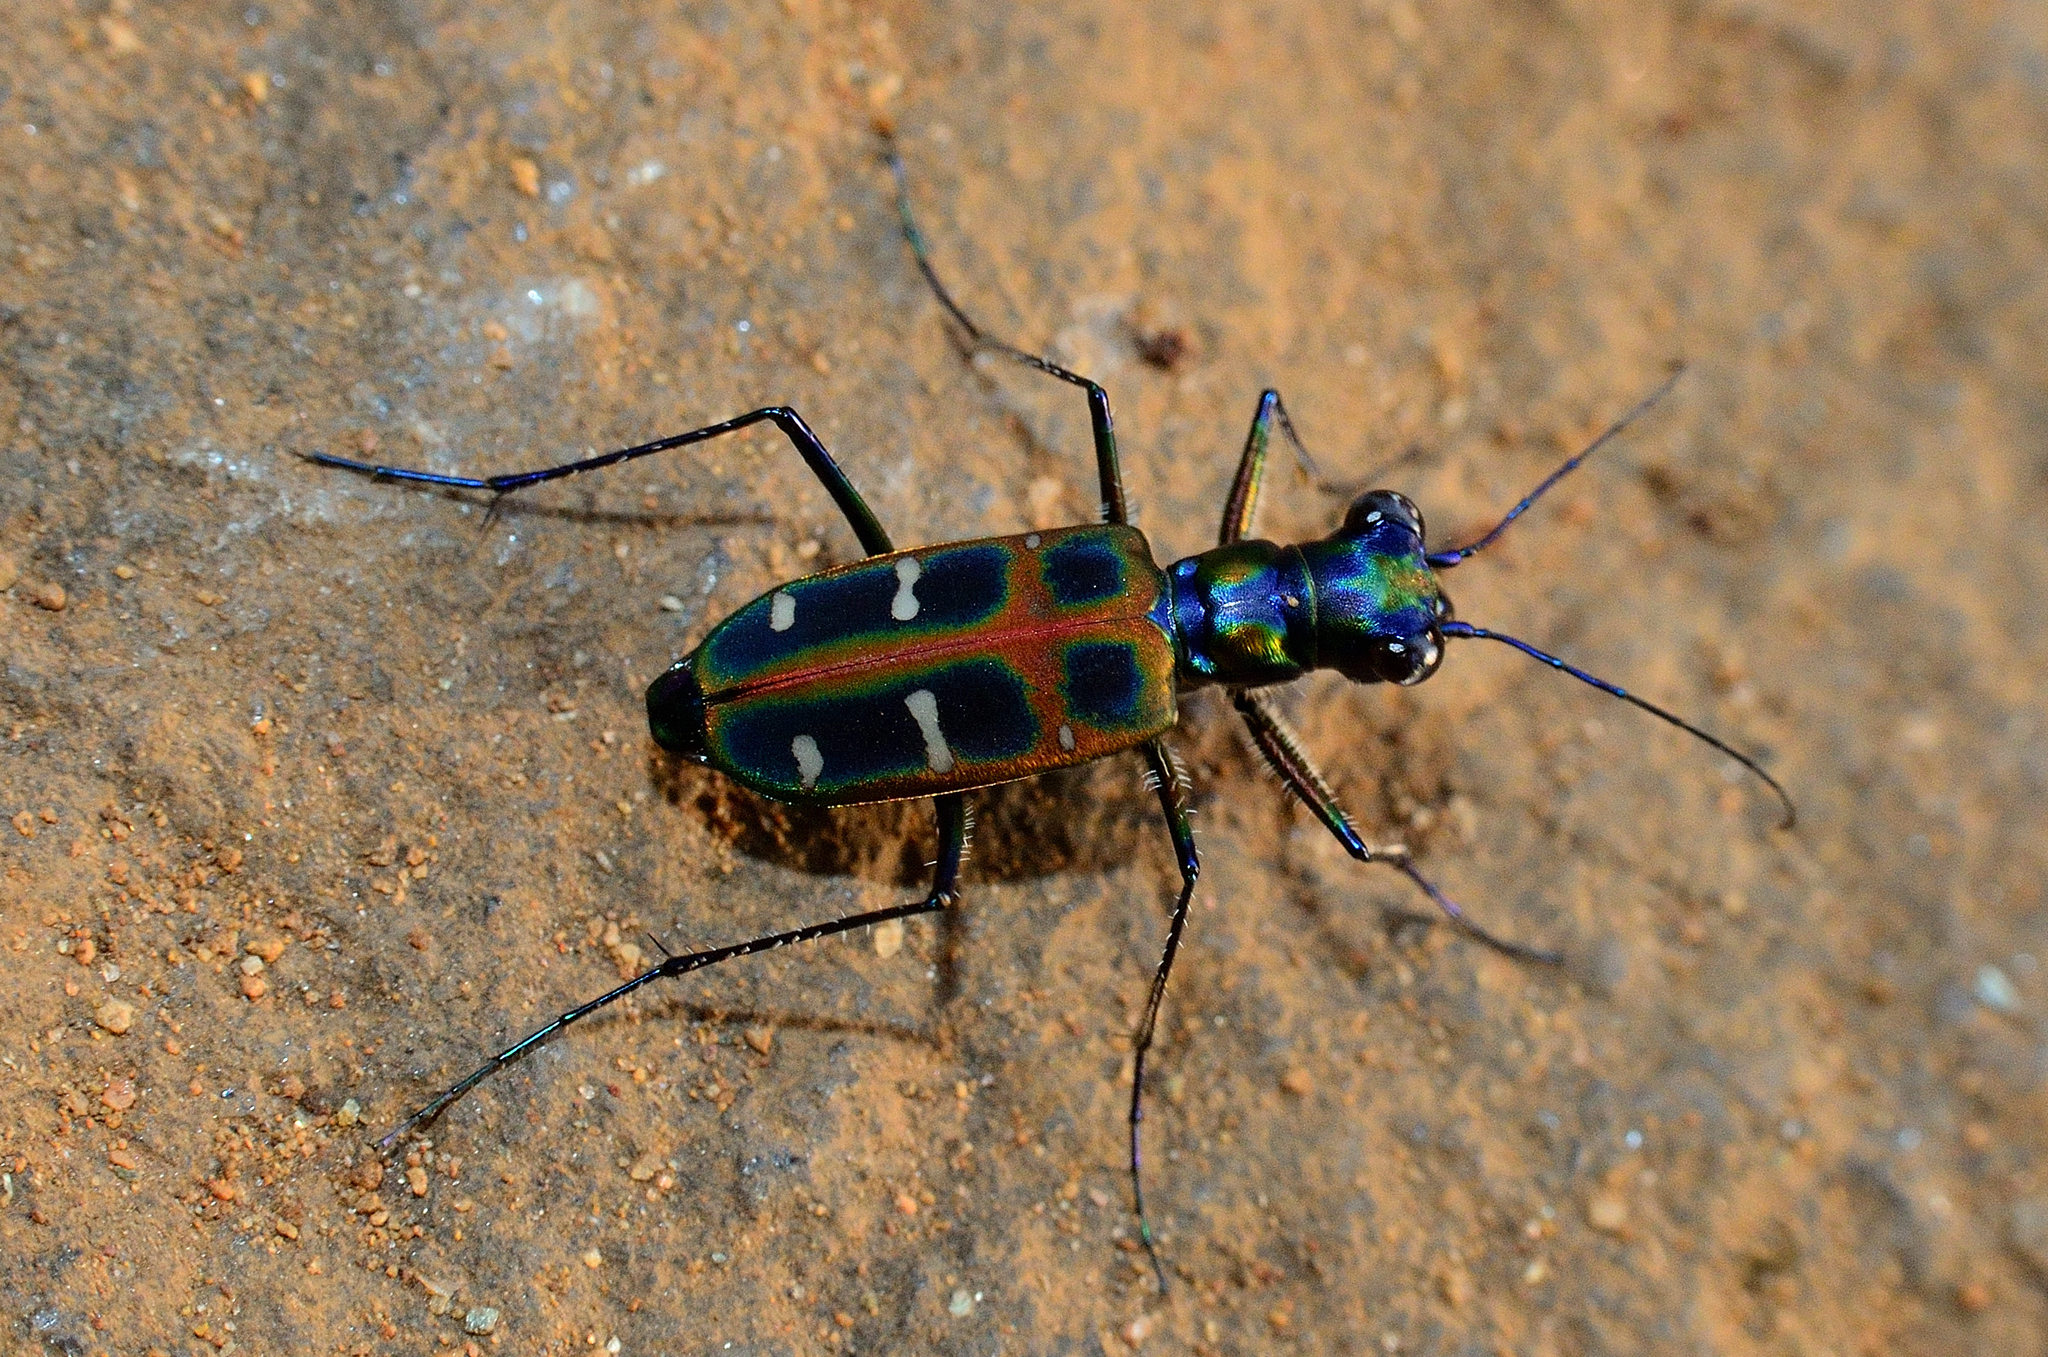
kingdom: Animalia
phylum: Arthropoda
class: Insecta
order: Coleoptera
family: Carabidae
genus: Cicindela
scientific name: Cicindela barmanica
